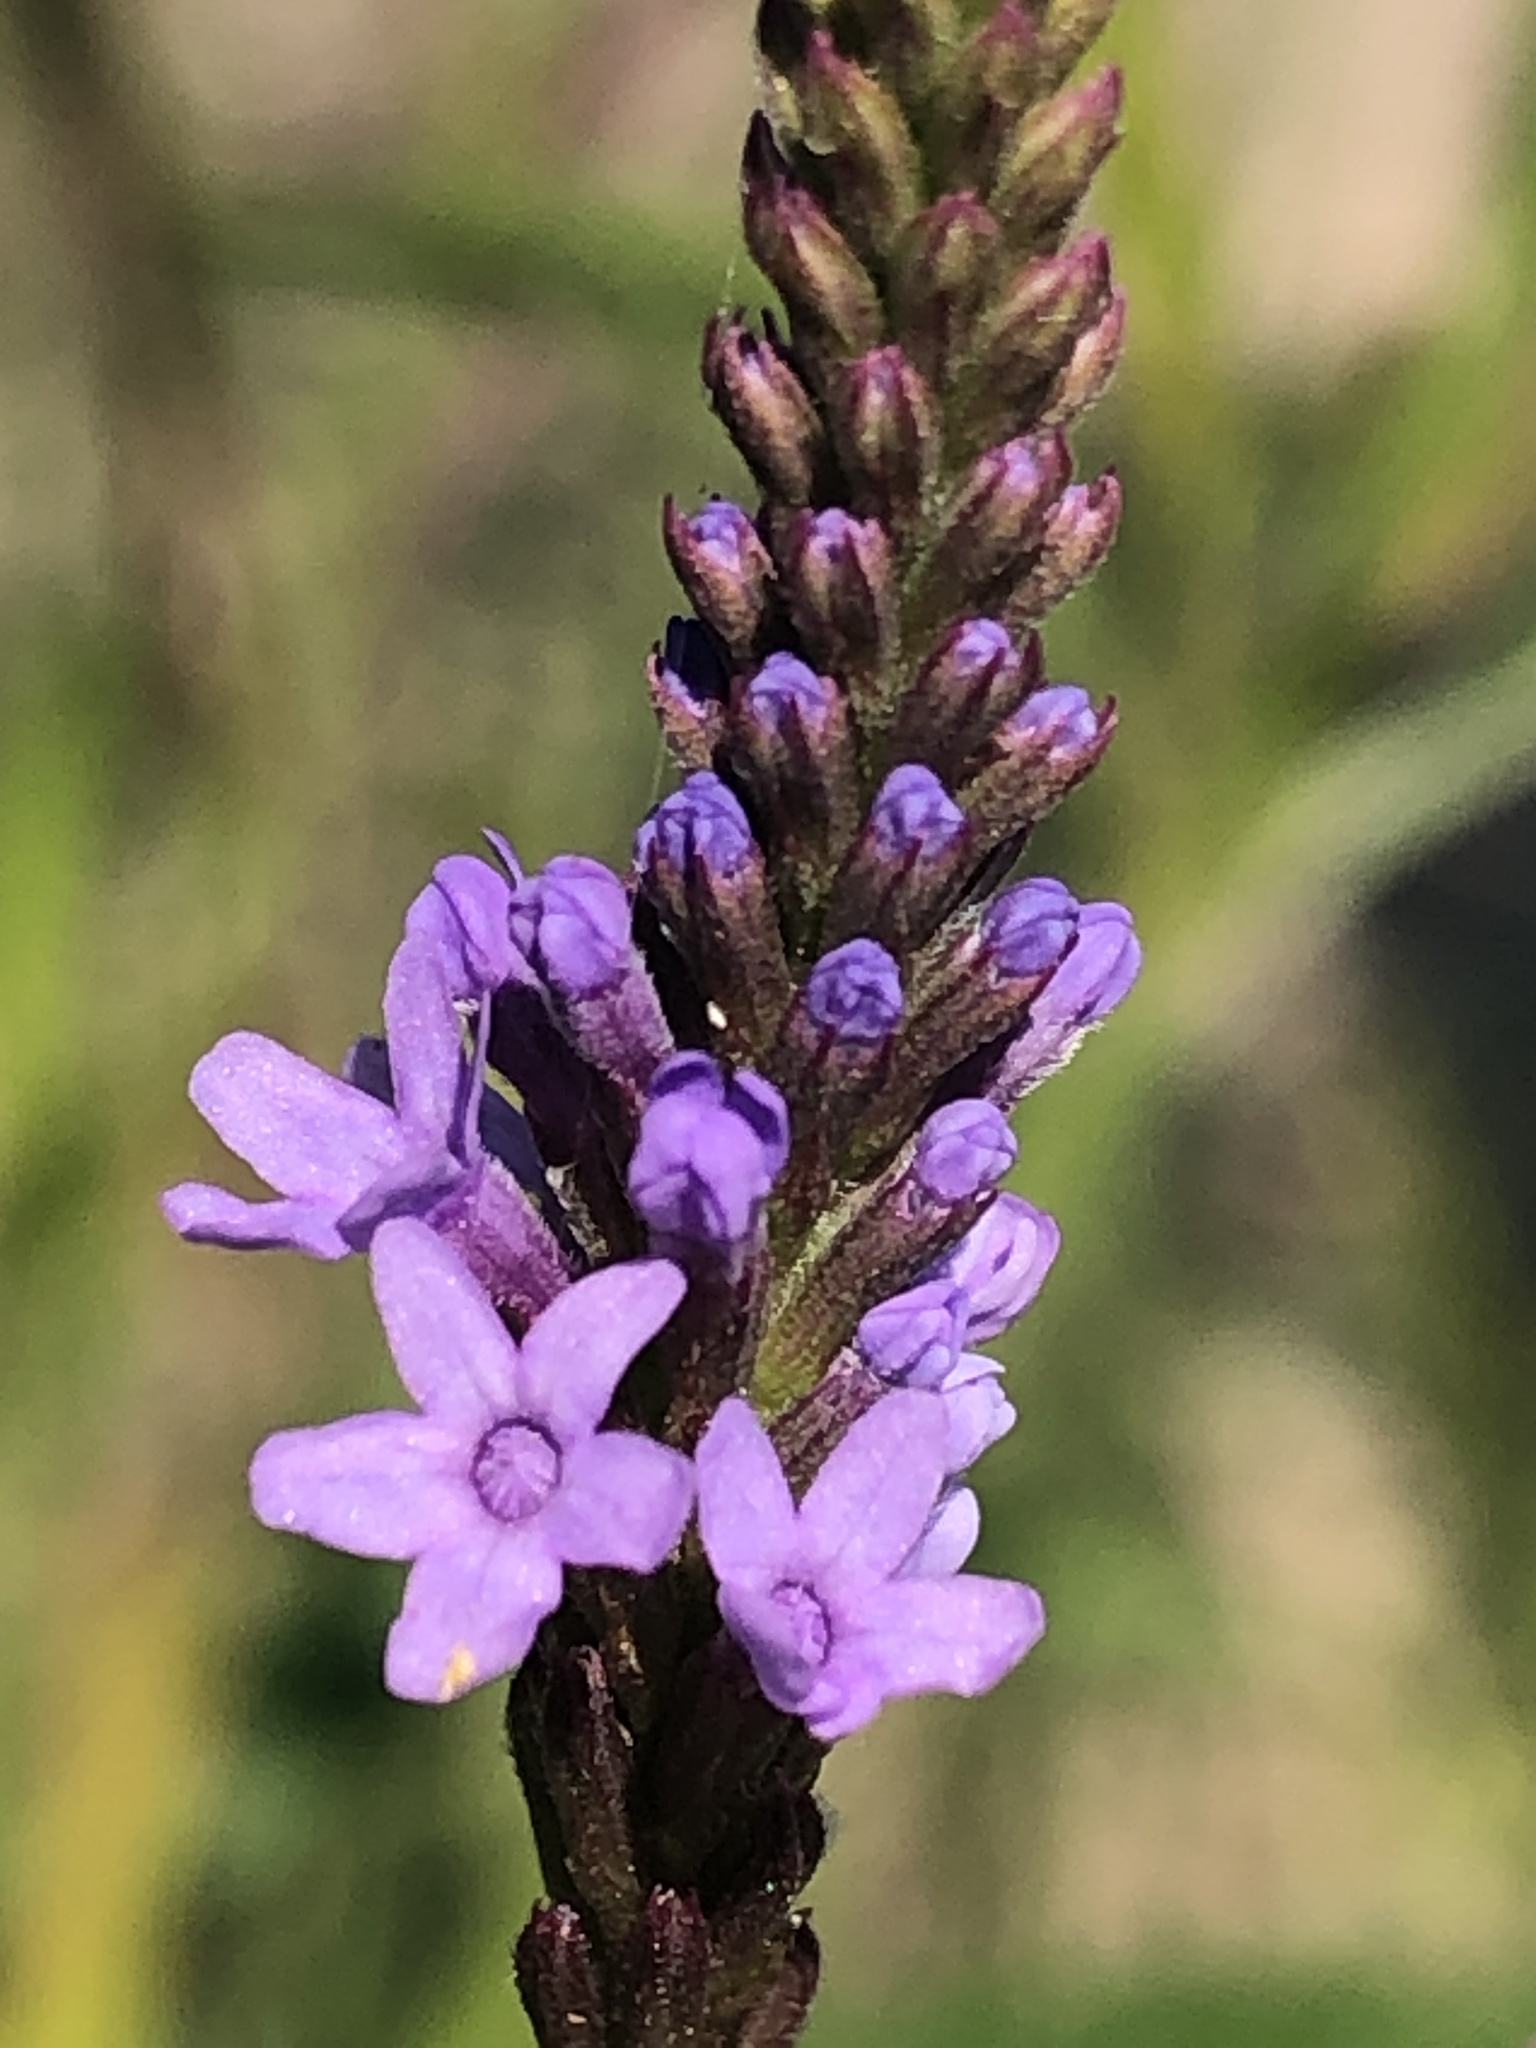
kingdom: Plantae
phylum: Tracheophyta
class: Magnoliopsida
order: Lamiales
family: Verbenaceae
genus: Verbena
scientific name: Verbena stricta
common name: Hoary vervain
